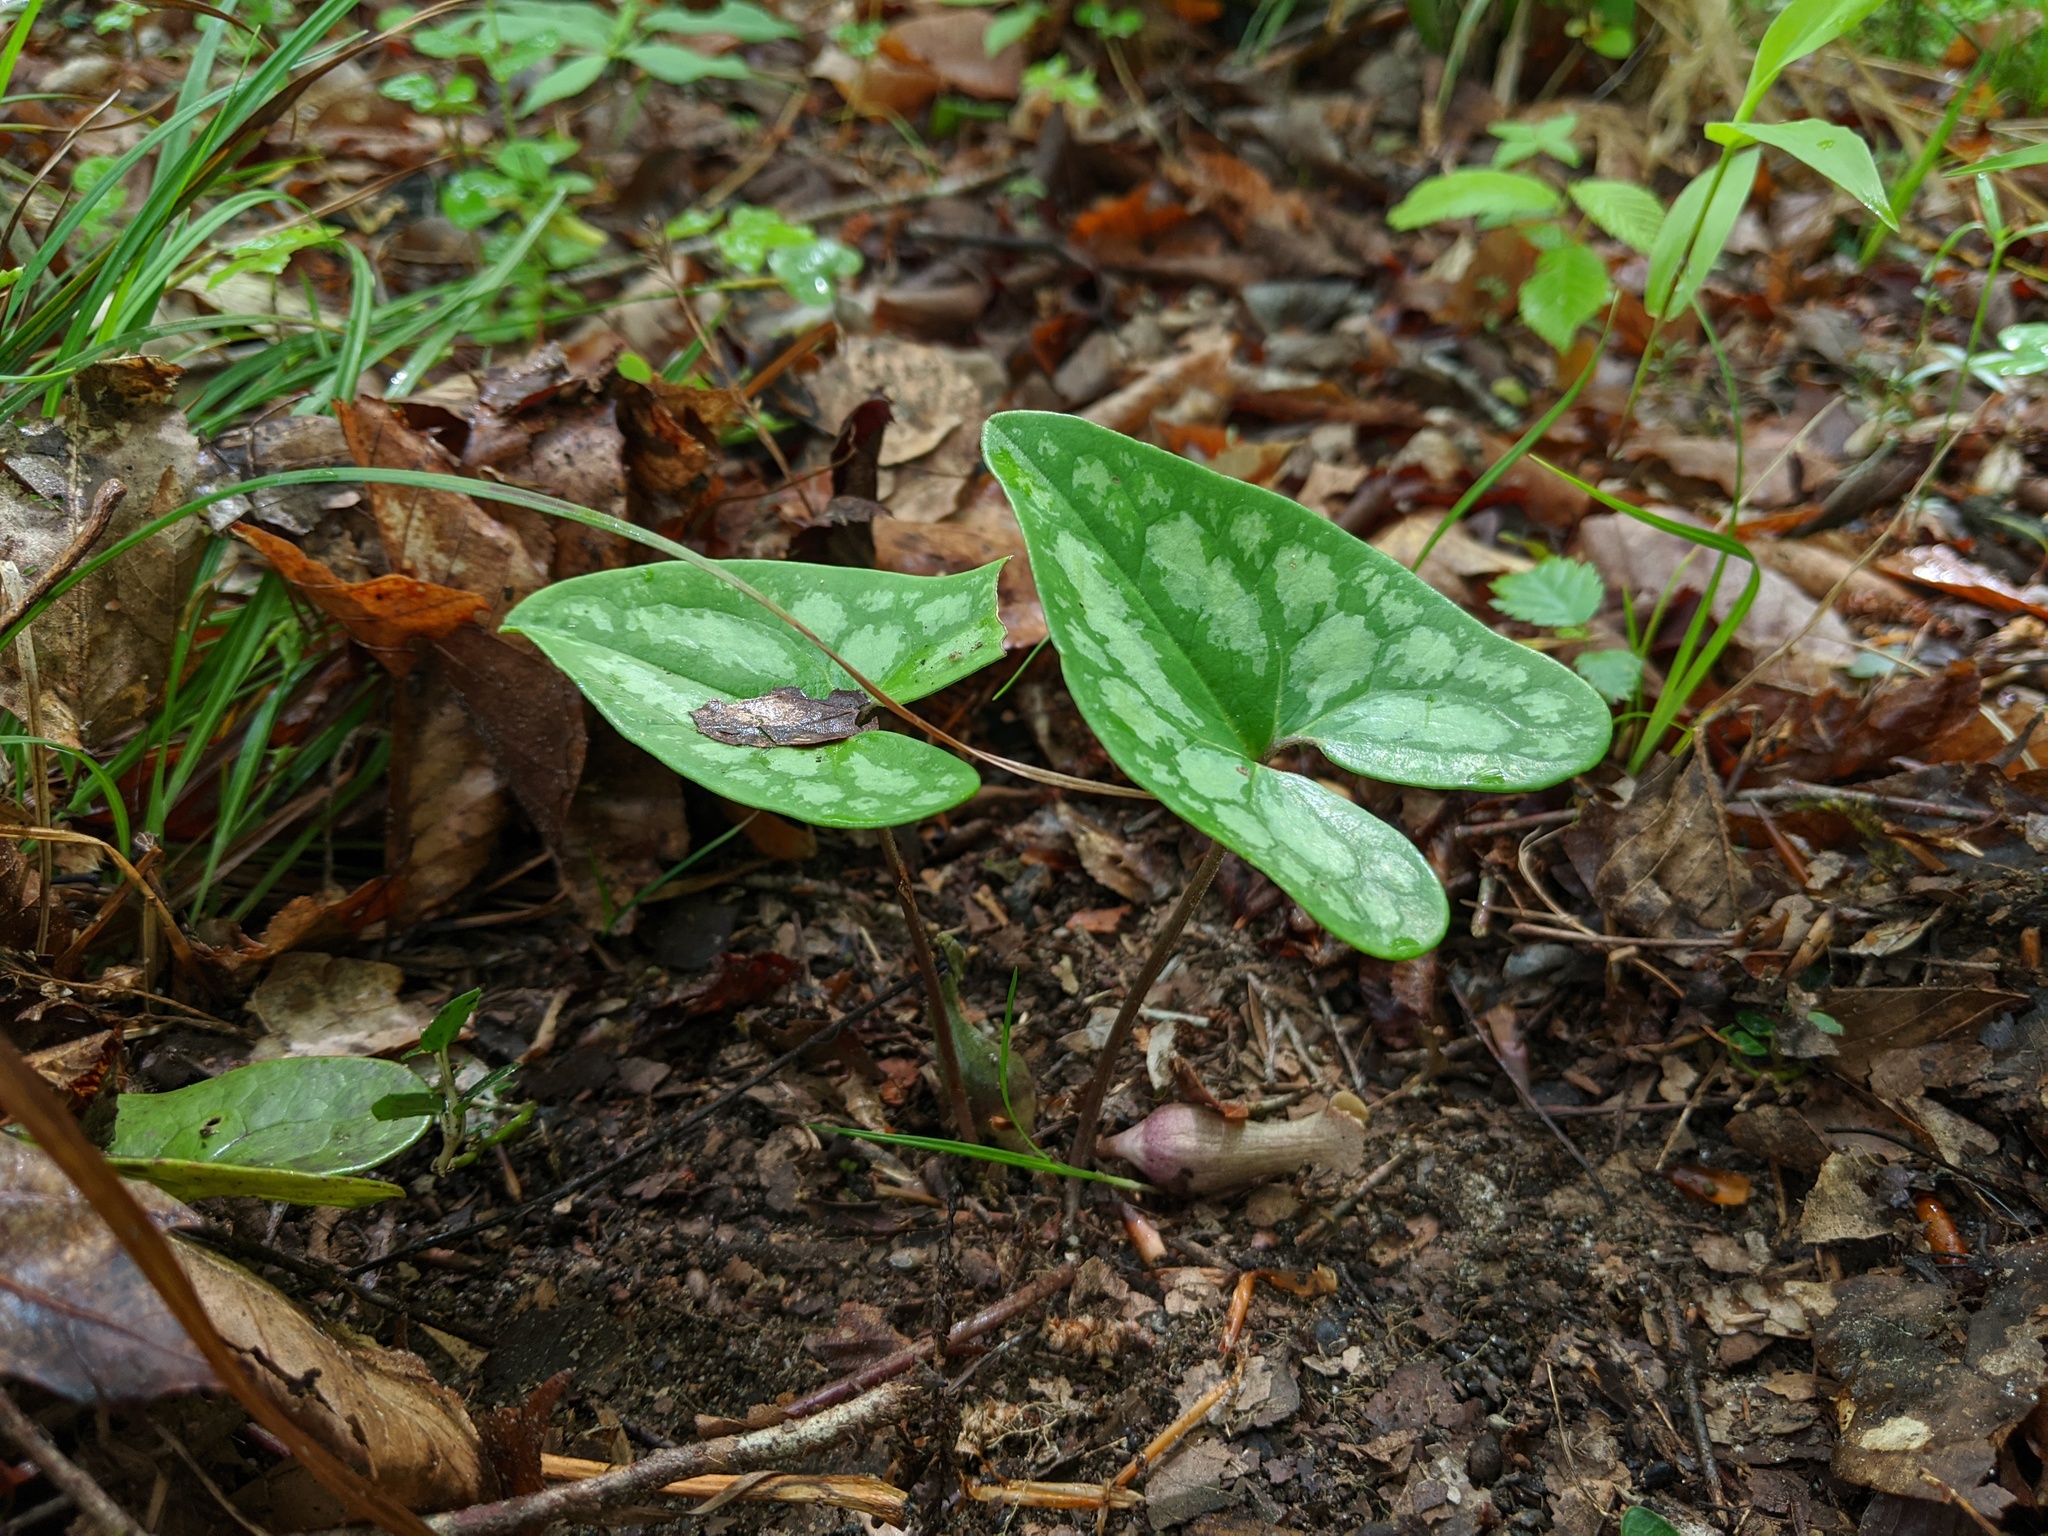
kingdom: Plantae
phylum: Tracheophyta
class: Magnoliopsida
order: Piperales
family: Aristolochiaceae
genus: Hexastylis
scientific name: Hexastylis arifolia
